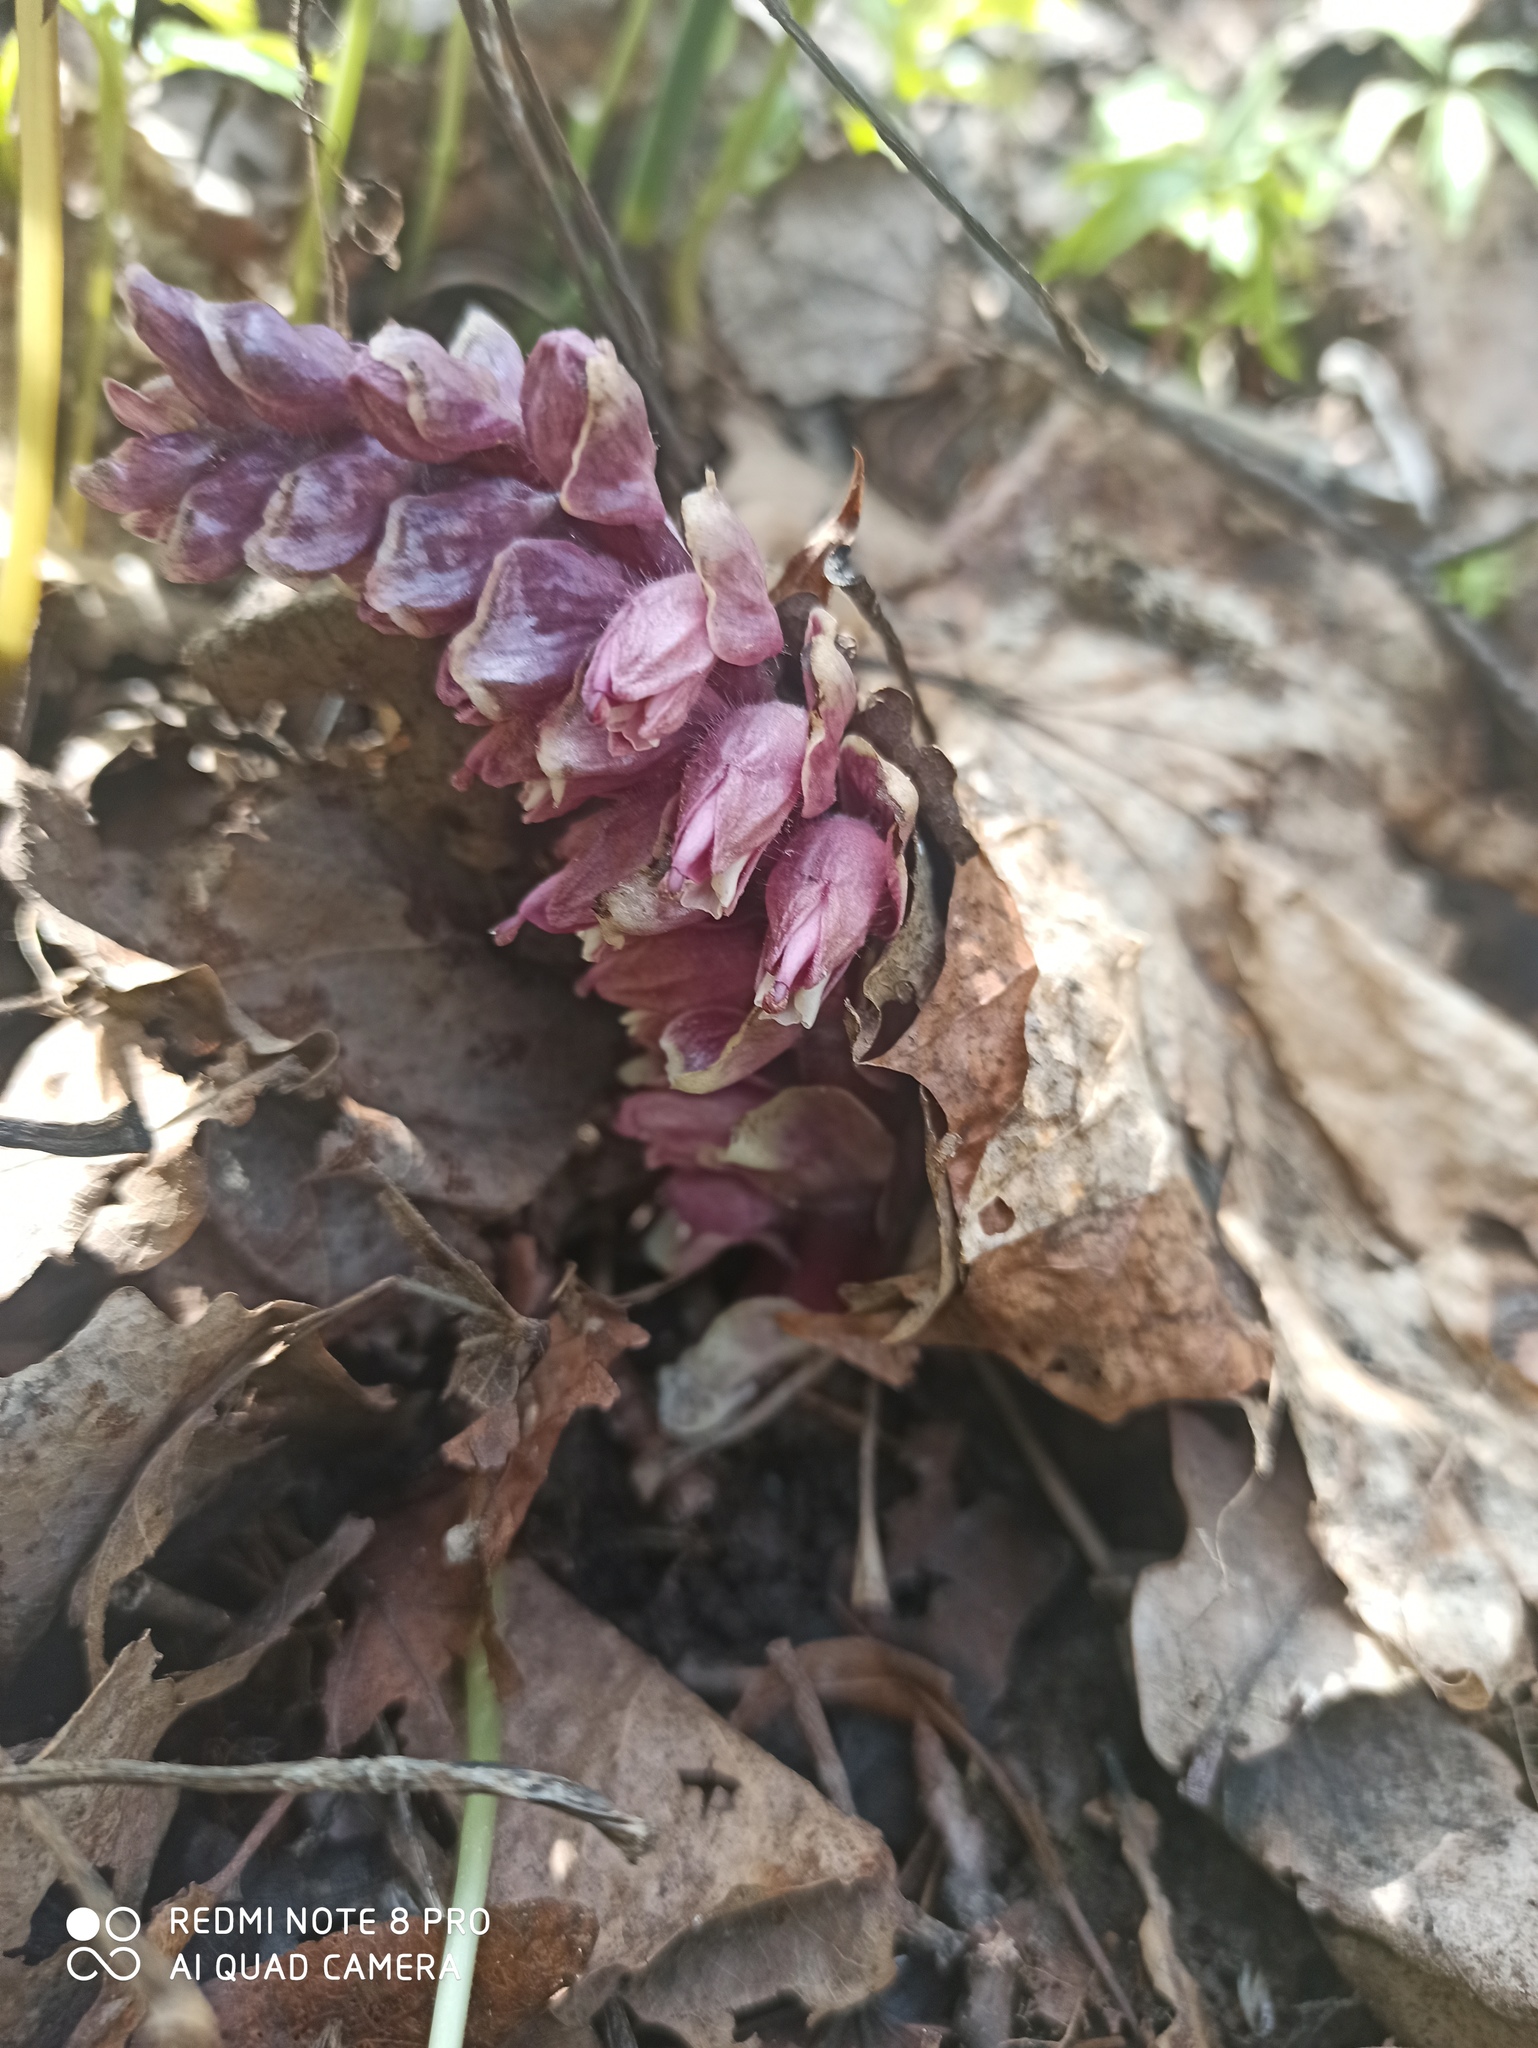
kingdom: Plantae
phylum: Tracheophyta
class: Magnoliopsida
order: Lamiales
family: Orobanchaceae
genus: Lathraea
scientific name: Lathraea squamaria
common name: Toothwort
